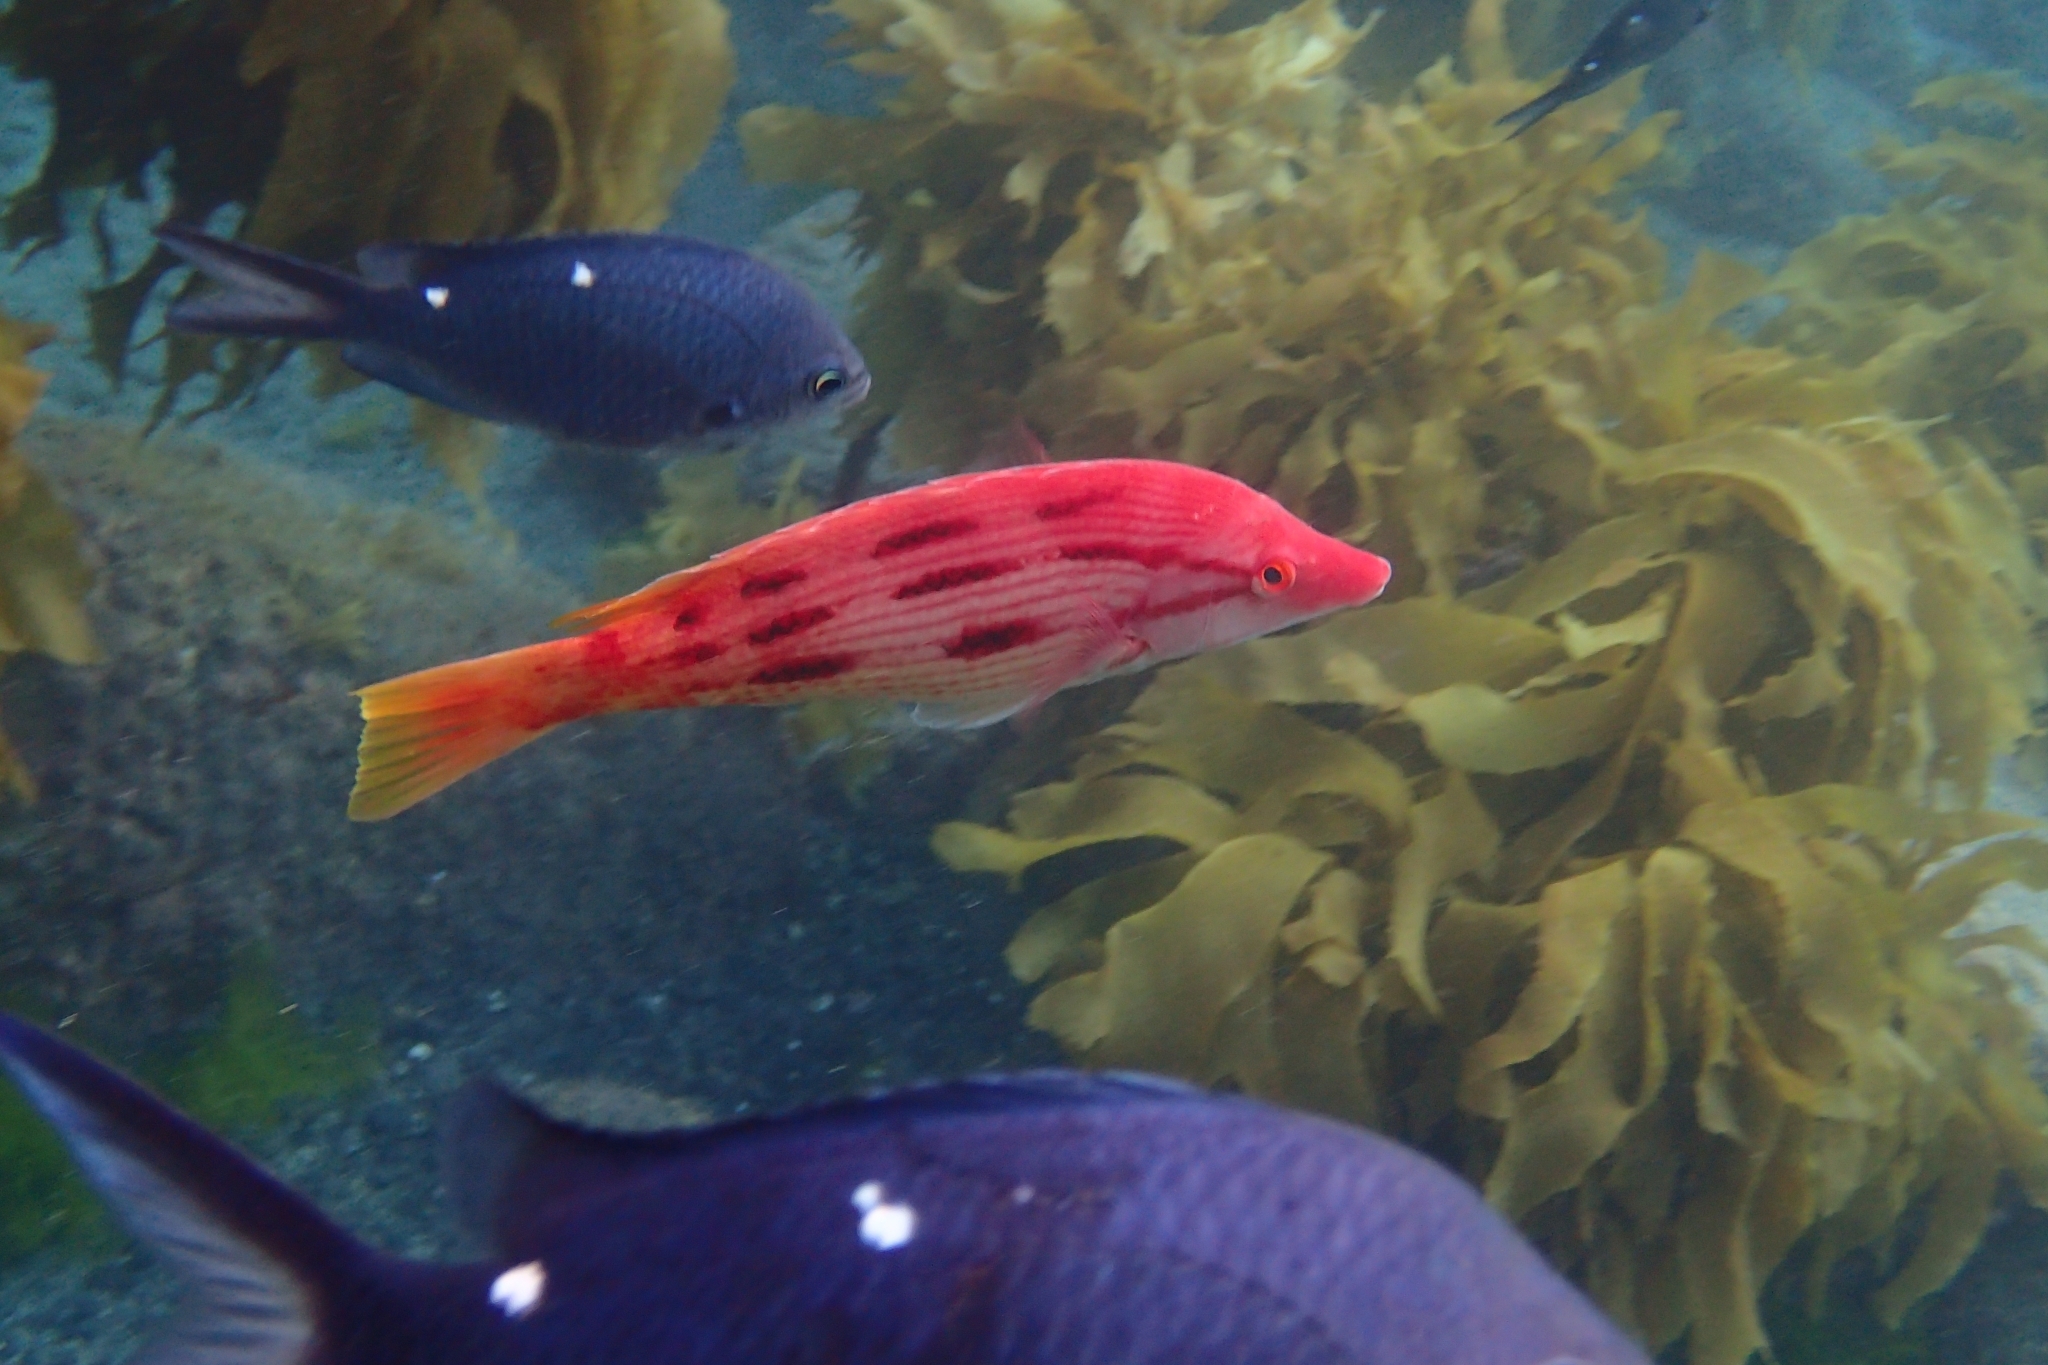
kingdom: Animalia
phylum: Chordata
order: Perciformes
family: Labridae
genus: Bodianus
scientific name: Bodianus unimaculatus
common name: Pigfish
